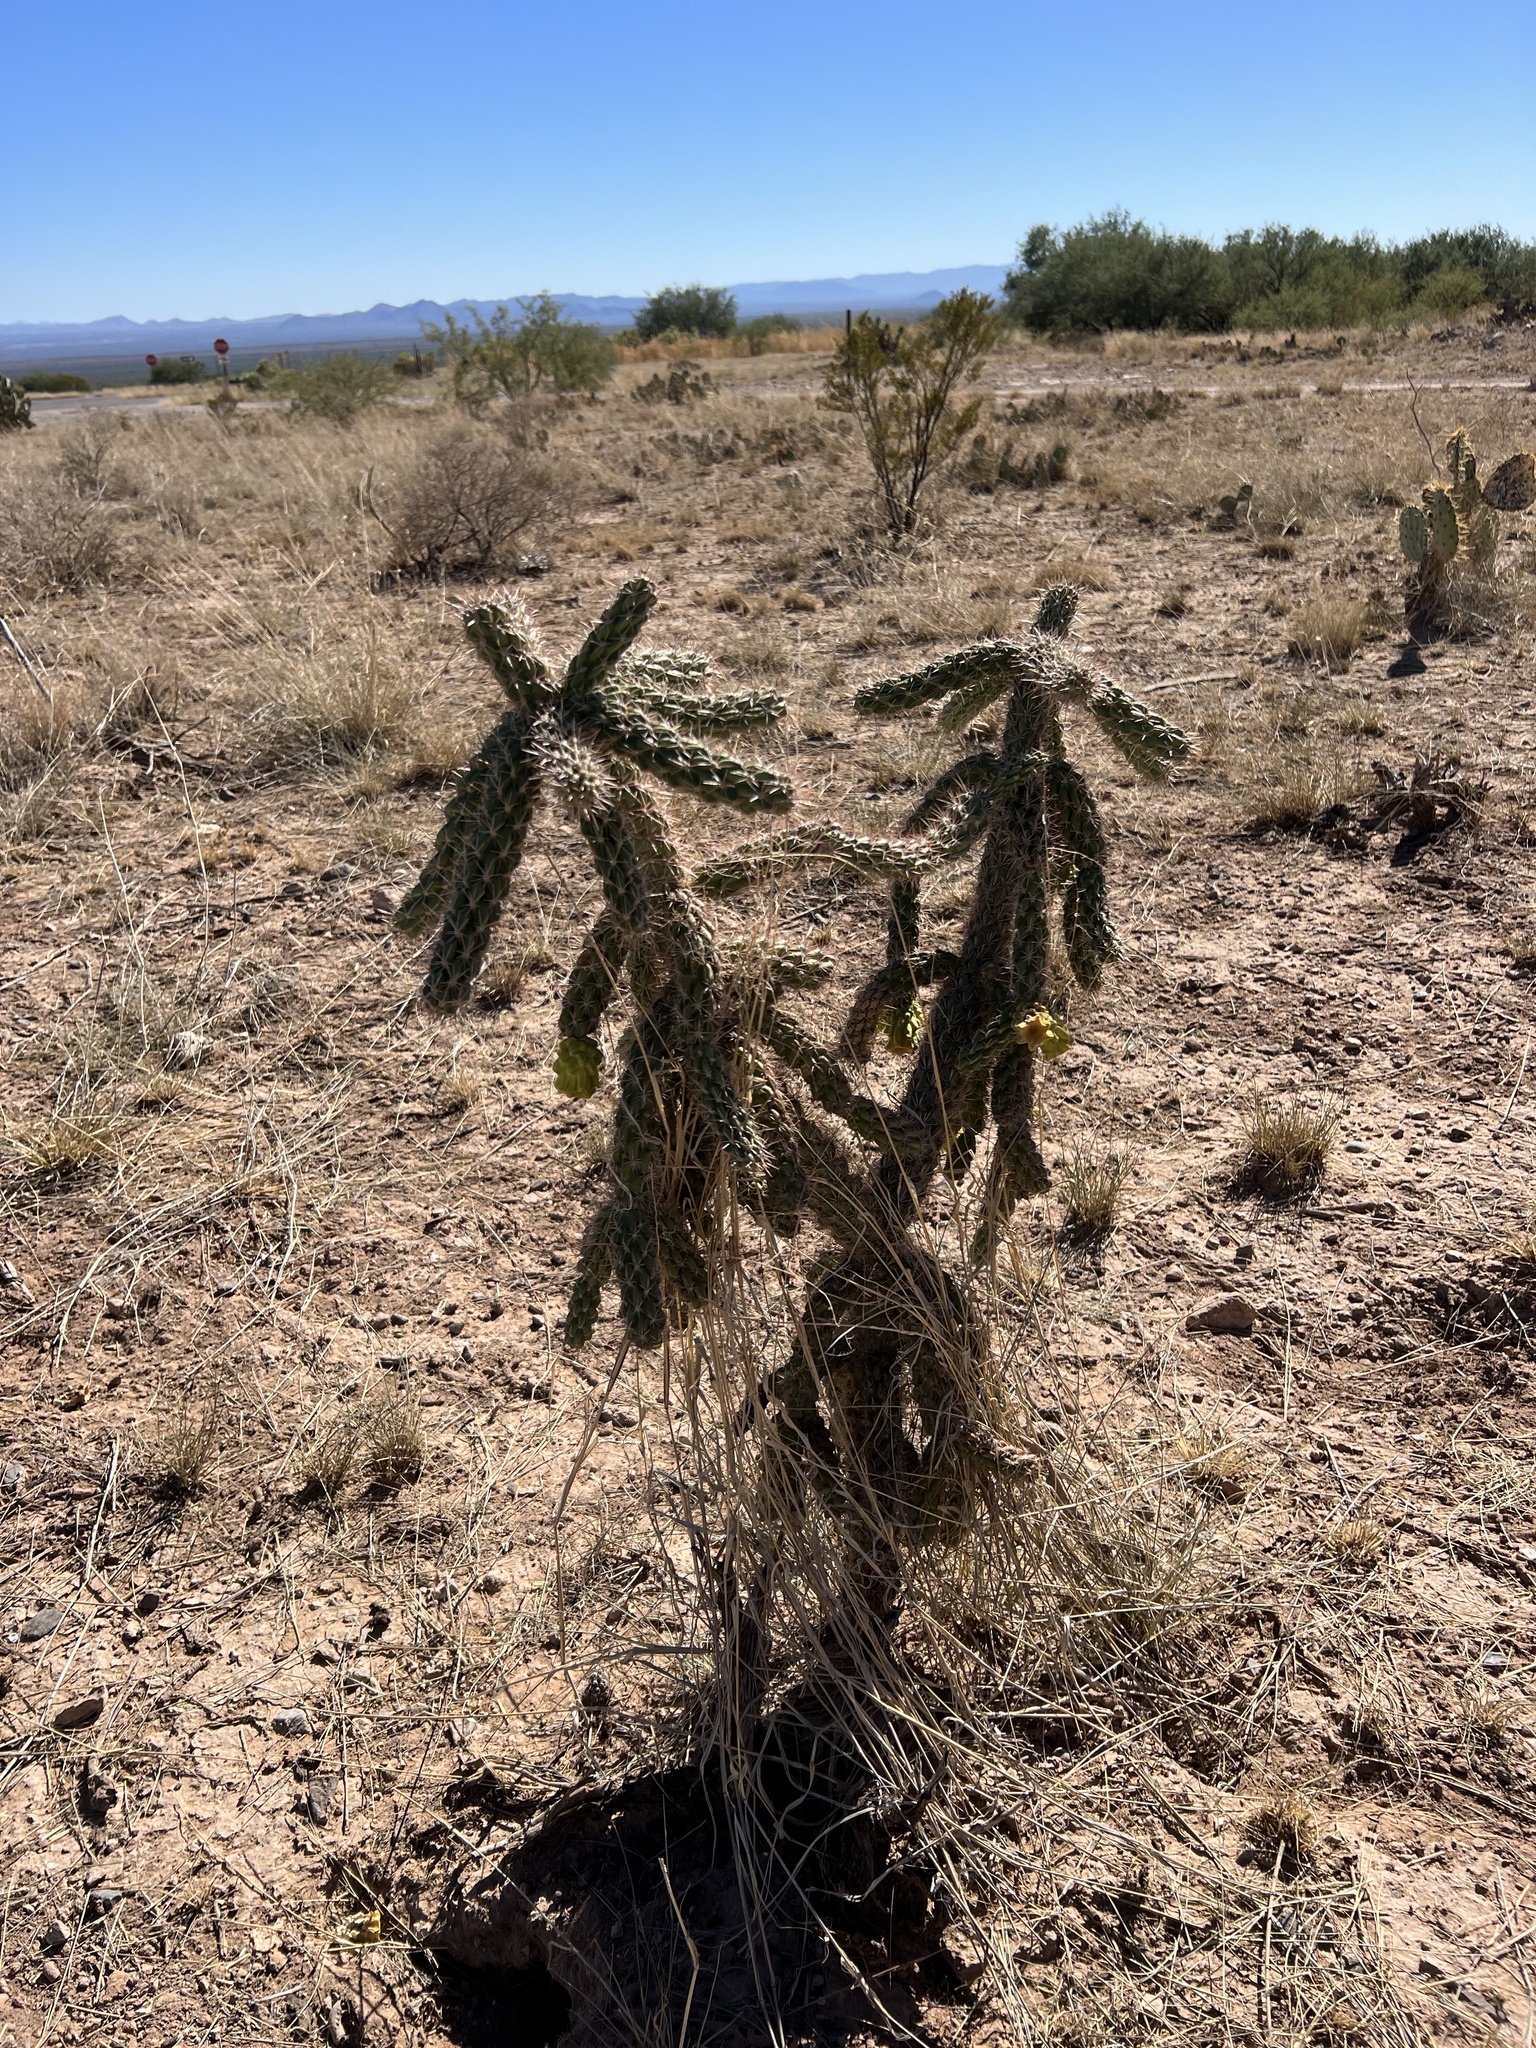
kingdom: Plantae
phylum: Tracheophyta
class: Magnoliopsida
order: Caryophyllales
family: Cactaceae
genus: Cylindropuntia
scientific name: Cylindropuntia imbricata
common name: Candelabrum cactus
